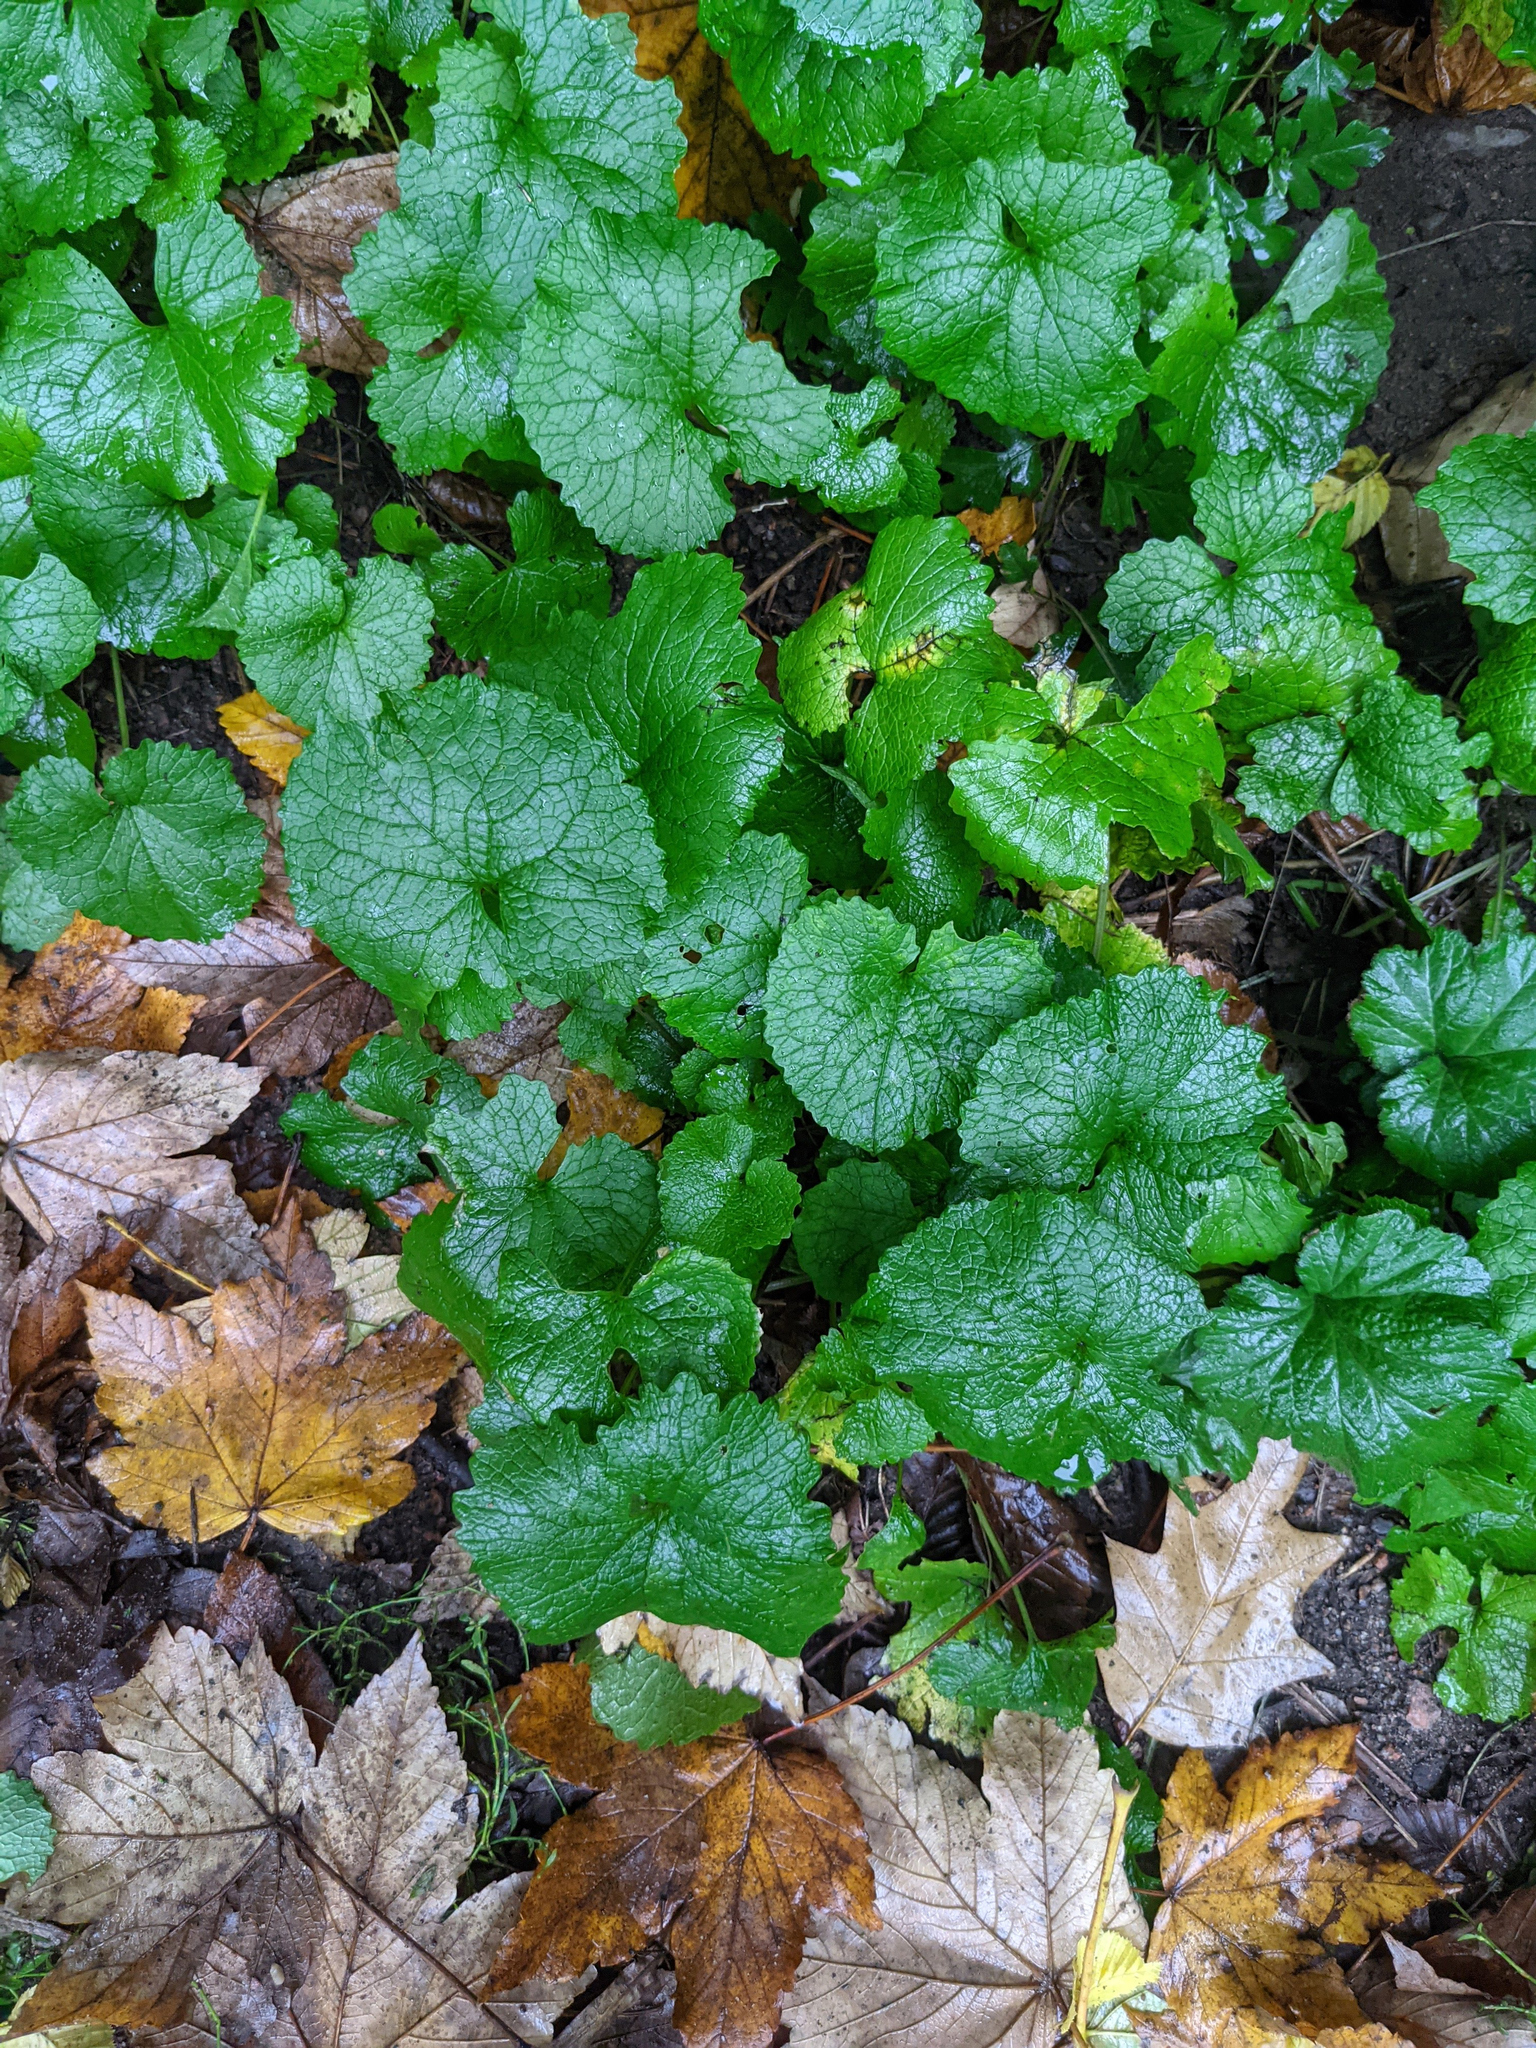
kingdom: Plantae
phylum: Tracheophyta
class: Magnoliopsida
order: Brassicales
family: Brassicaceae
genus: Alliaria
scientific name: Alliaria petiolata
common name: Garlic mustard
